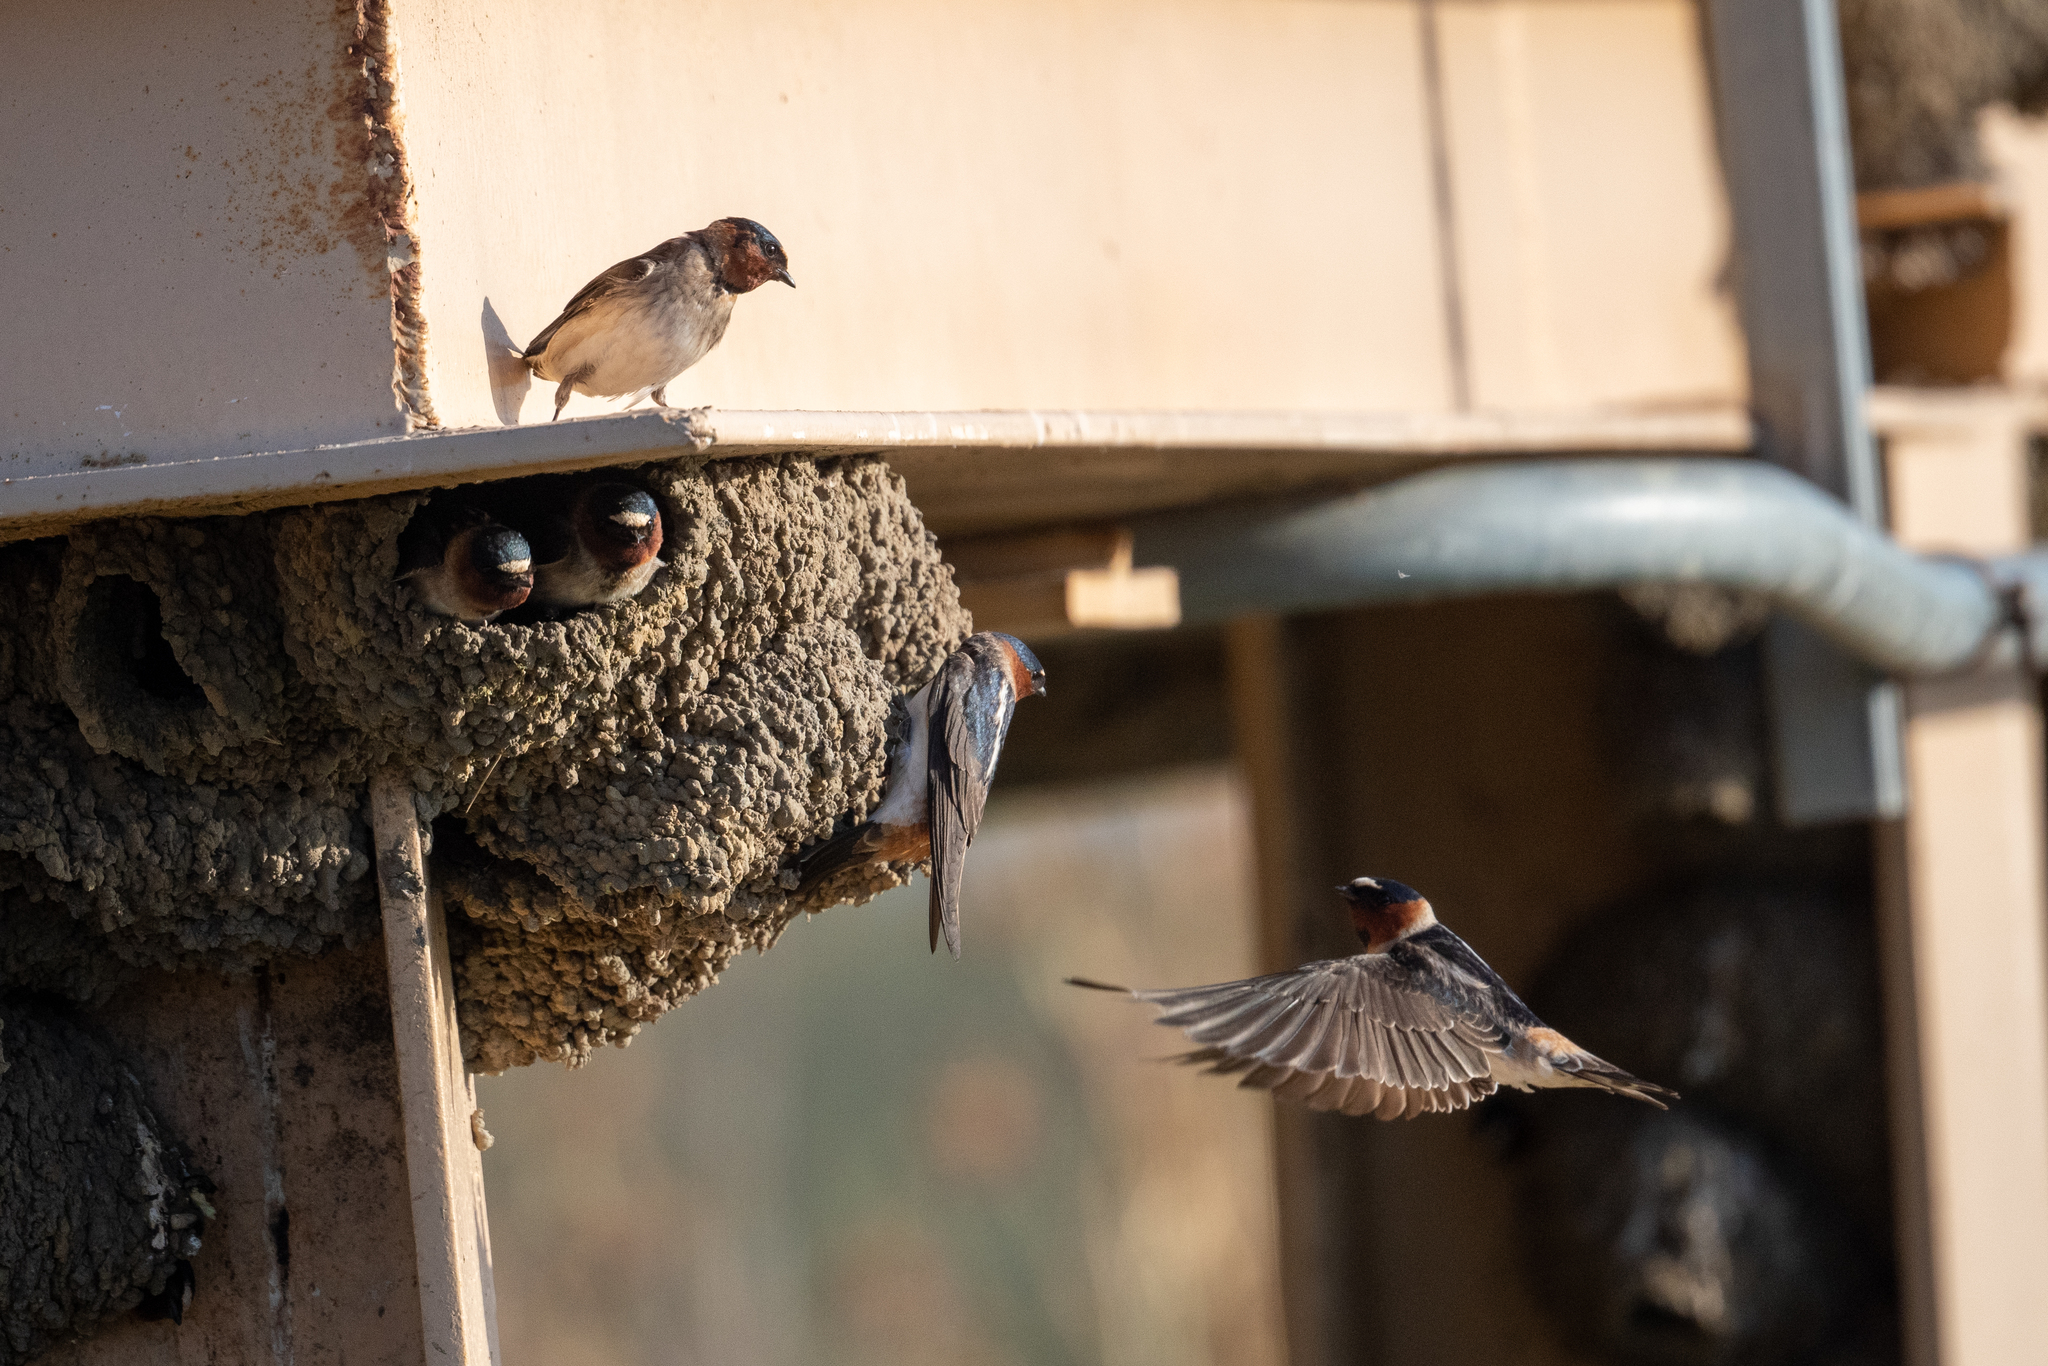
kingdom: Animalia
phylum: Chordata
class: Aves
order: Passeriformes
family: Hirundinidae
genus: Petrochelidon
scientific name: Petrochelidon pyrrhonota
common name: American cliff swallow
